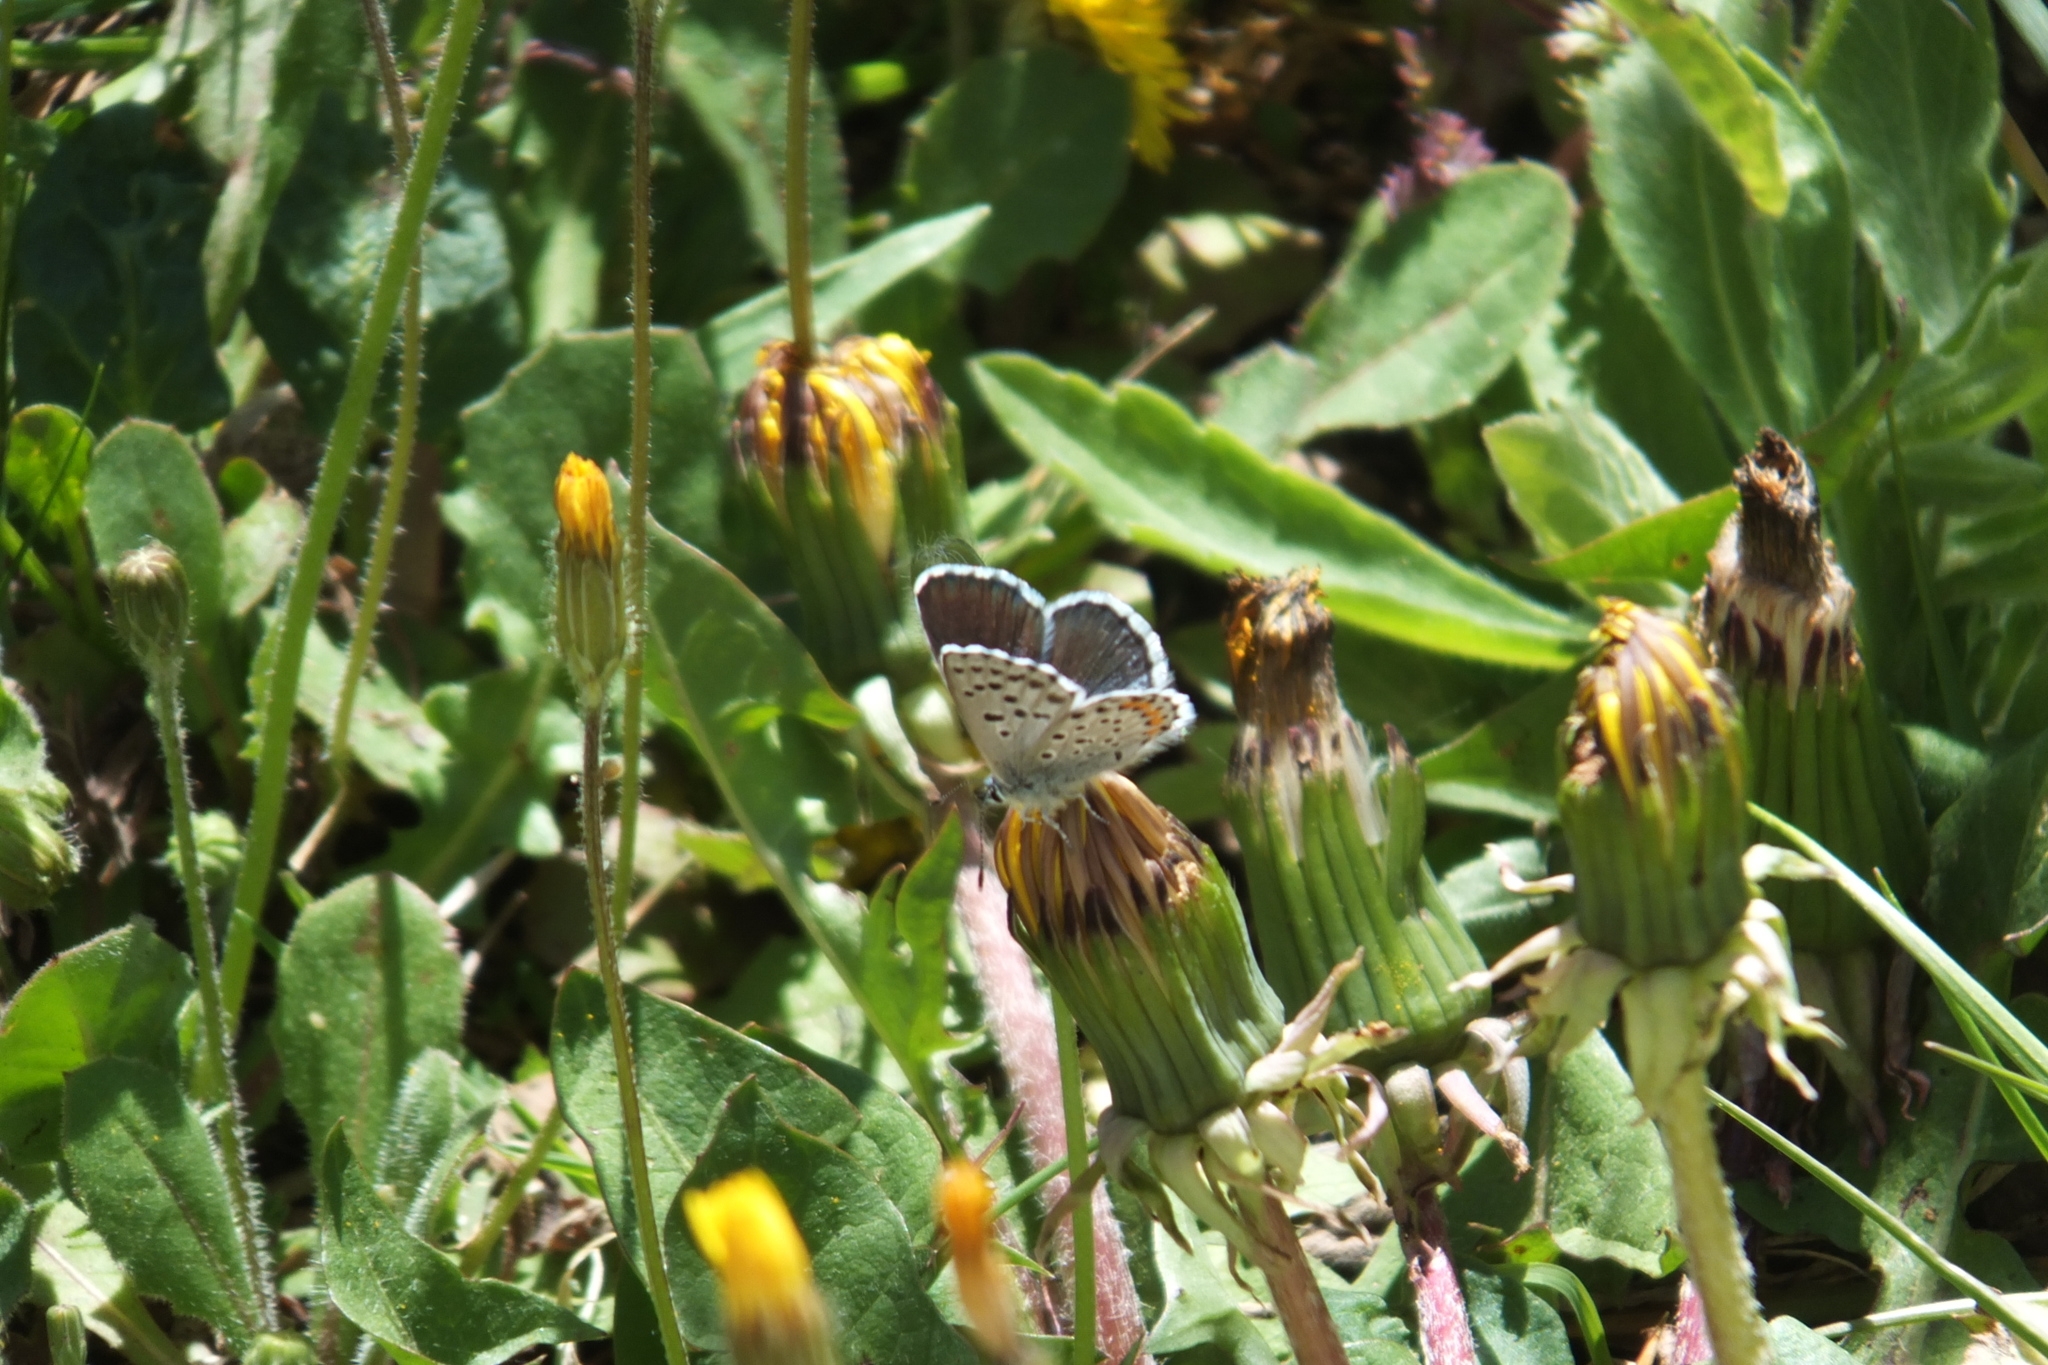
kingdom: Animalia
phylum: Arthropoda
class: Insecta
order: Lepidoptera
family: Lycaenidae
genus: Pseudophilotes
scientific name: Pseudophilotes baton
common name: Baton blue
